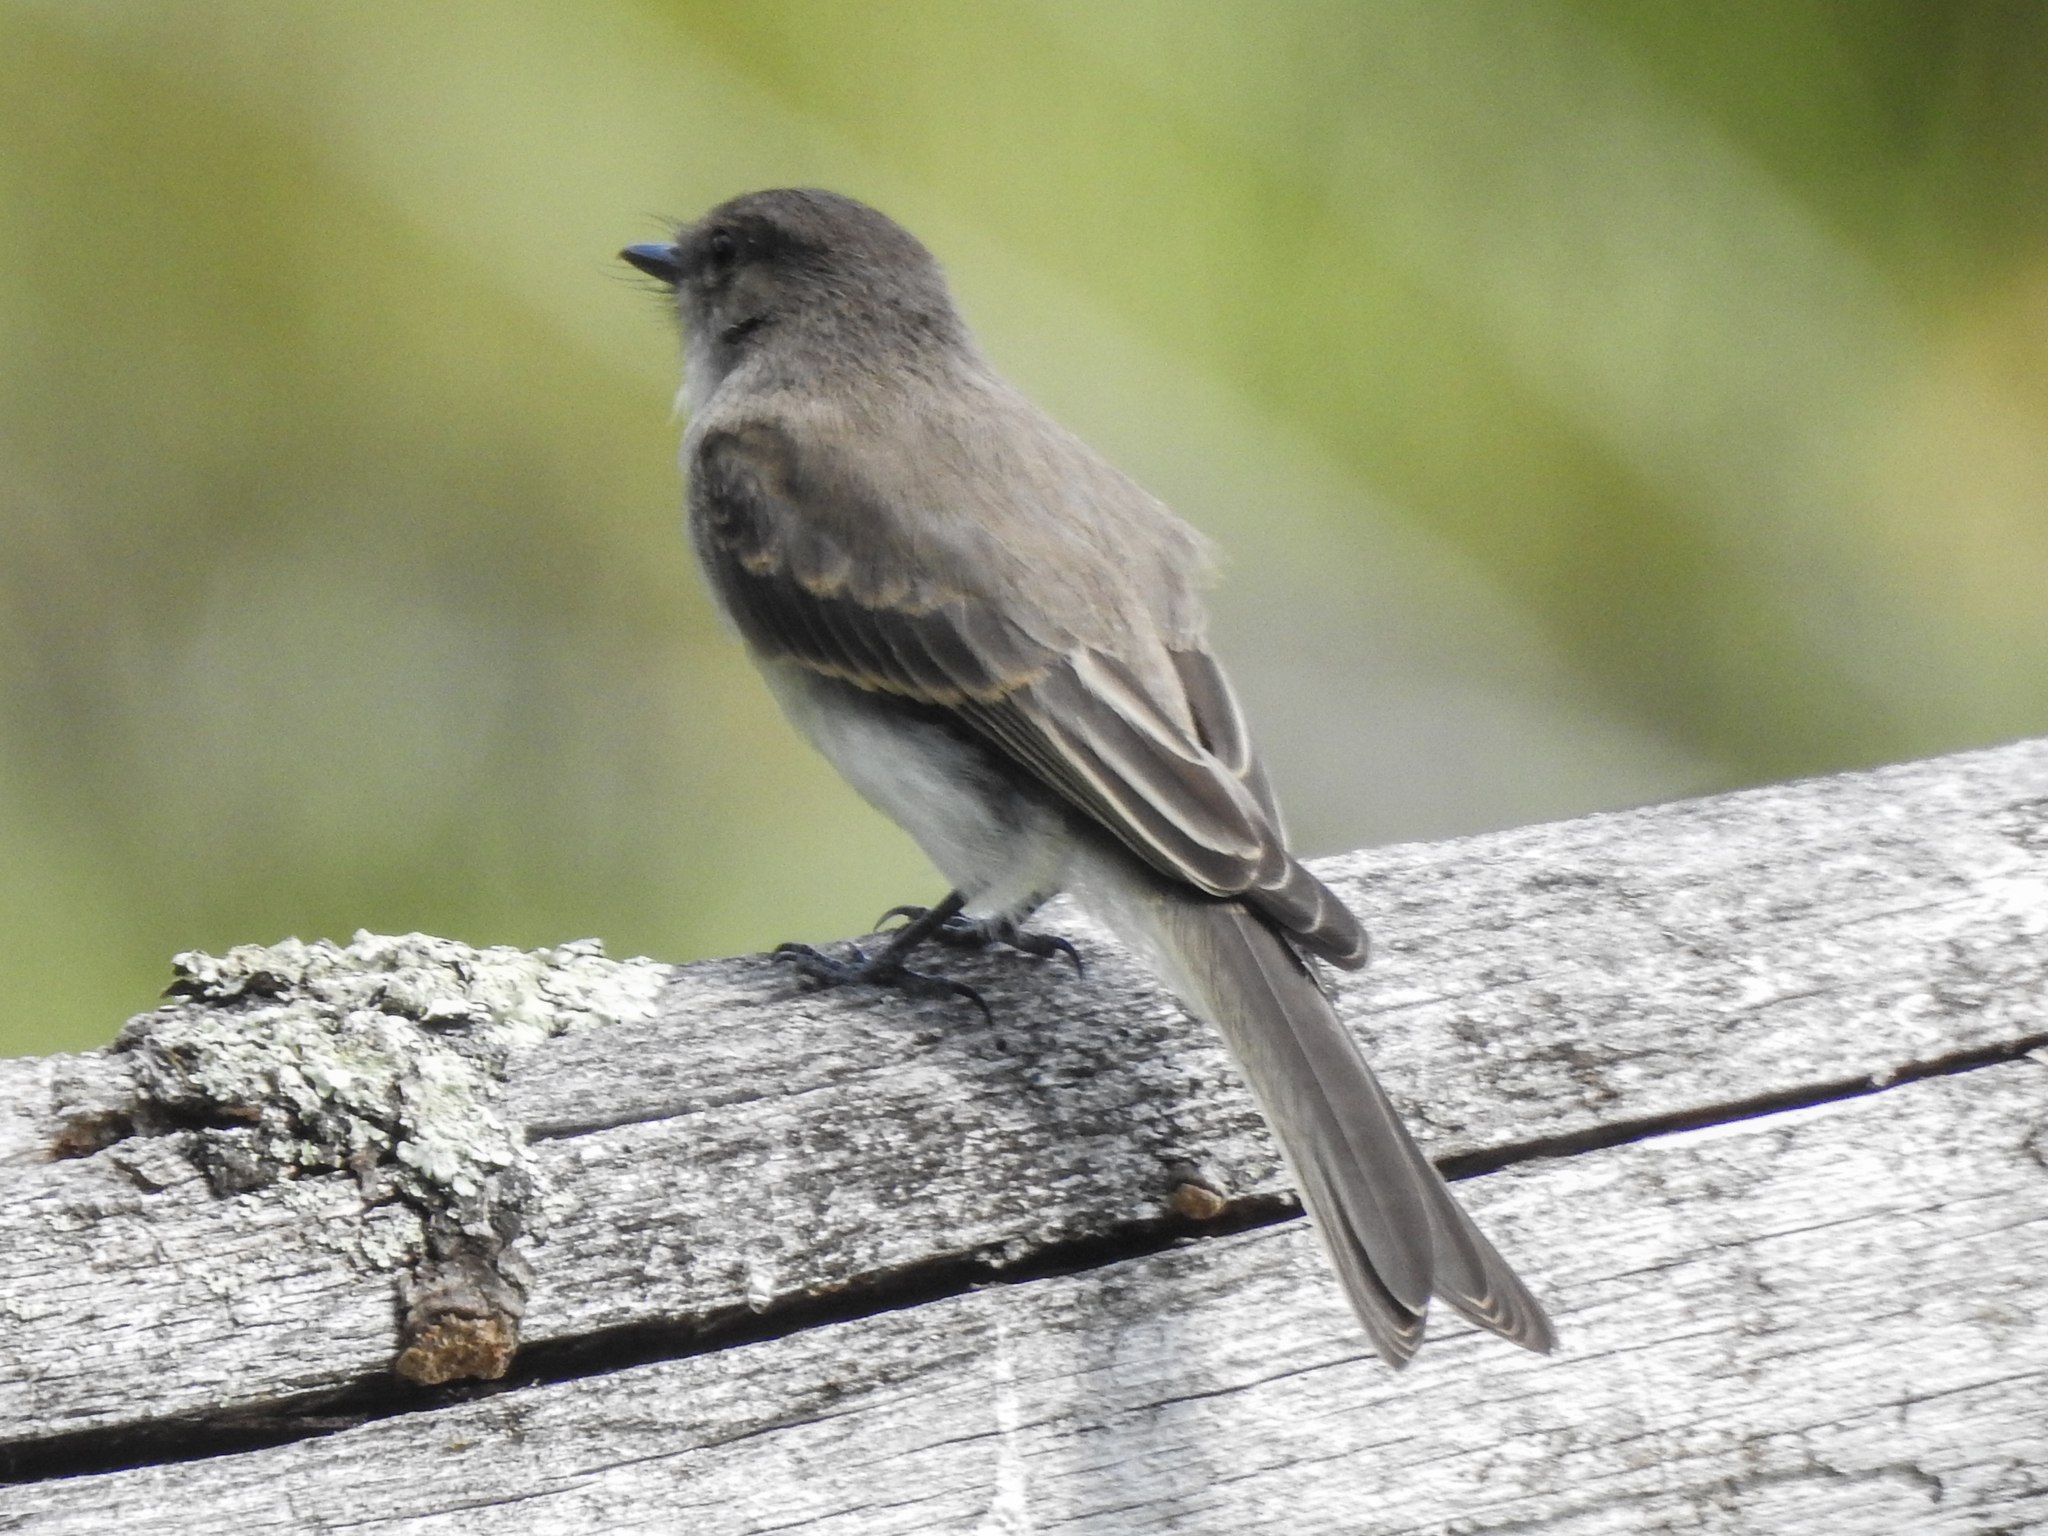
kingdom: Animalia
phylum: Chordata
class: Aves
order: Passeriformes
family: Tyrannidae
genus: Sayornis
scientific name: Sayornis phoebe
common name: Eastern phoebe
